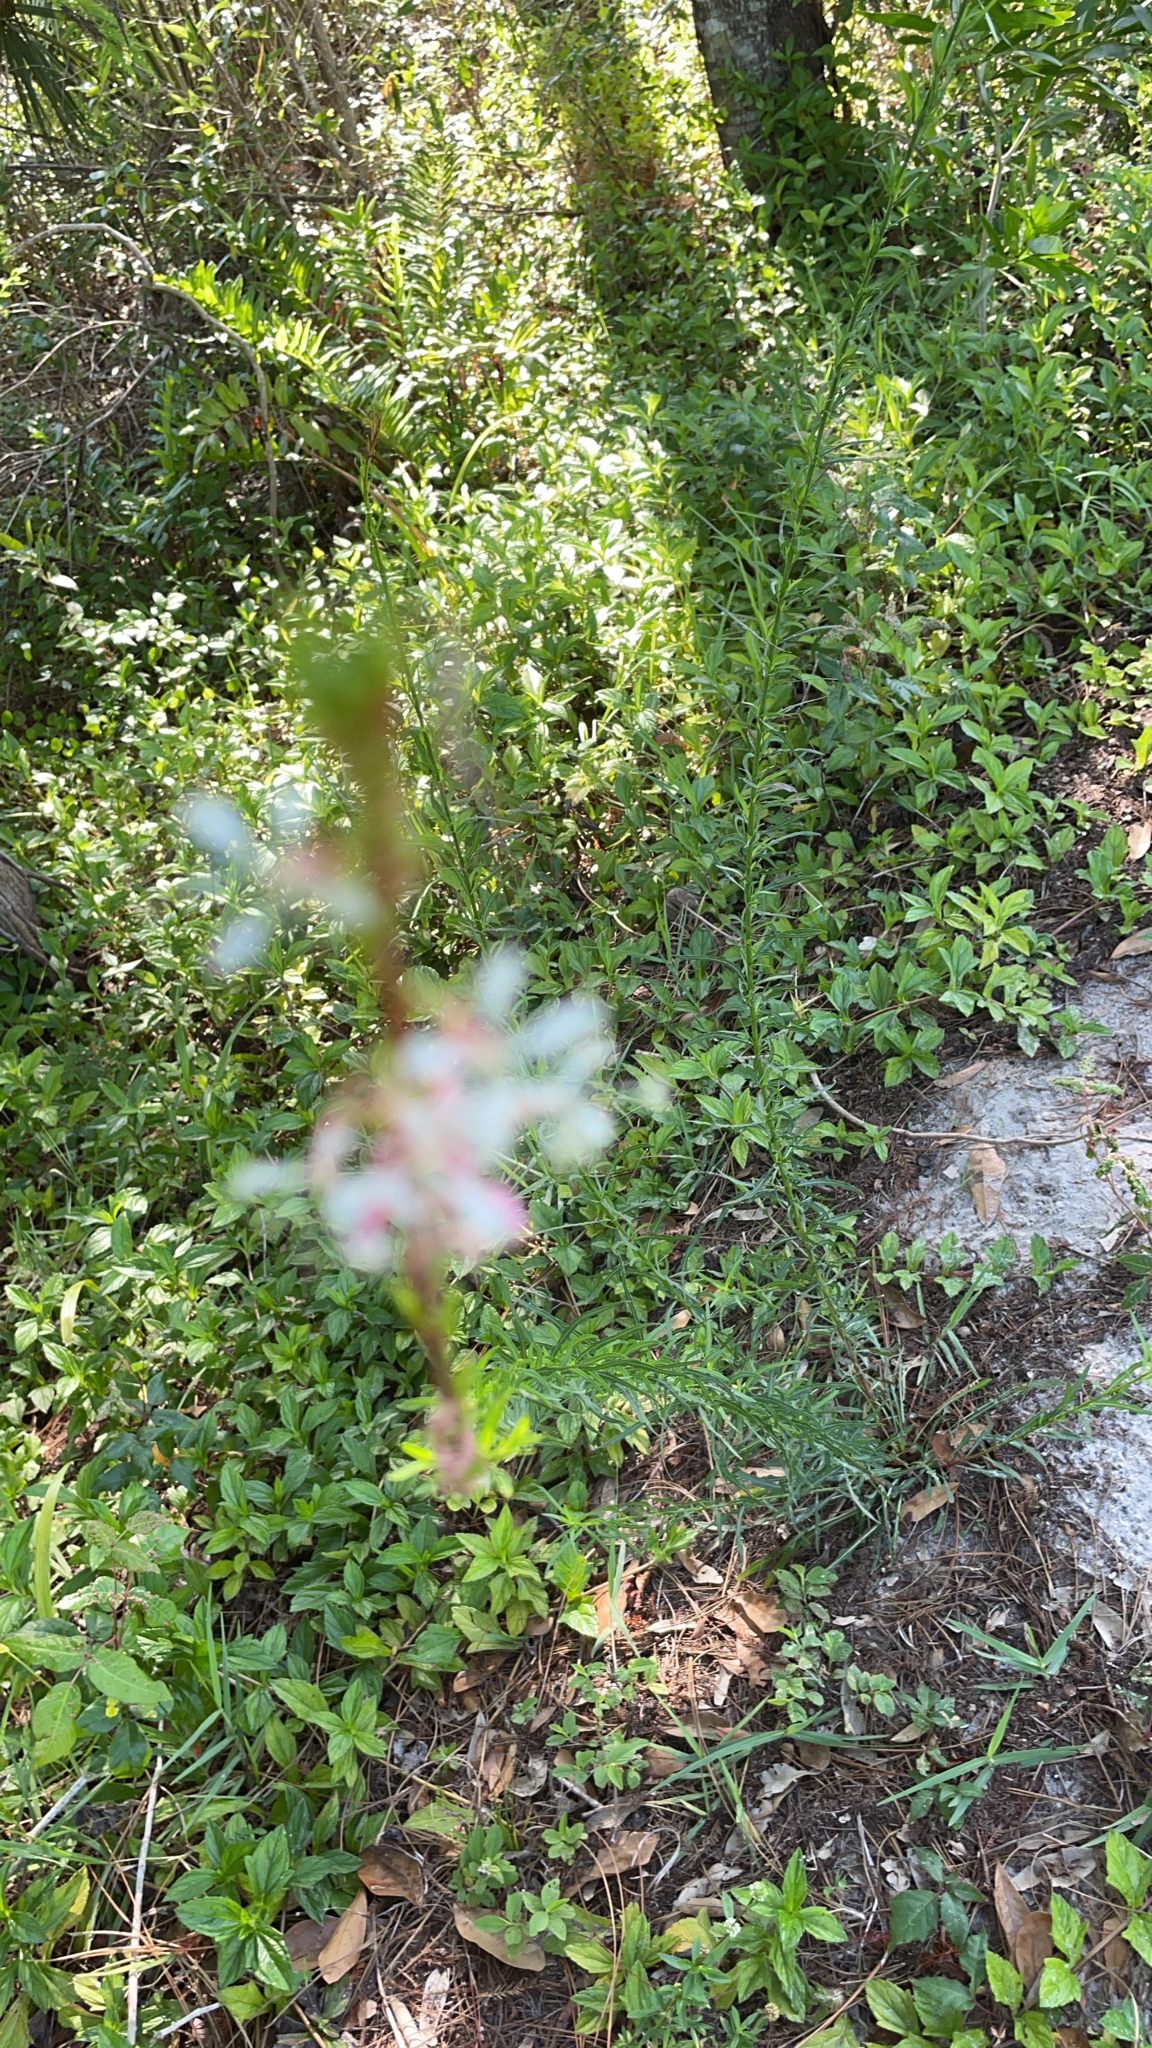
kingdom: Plantae
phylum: Tracheophyta
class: Magnoliopsida
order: Myrtales
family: Onagraceae
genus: Oenothera
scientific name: Oenothera simulans
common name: Southern beeblossom
